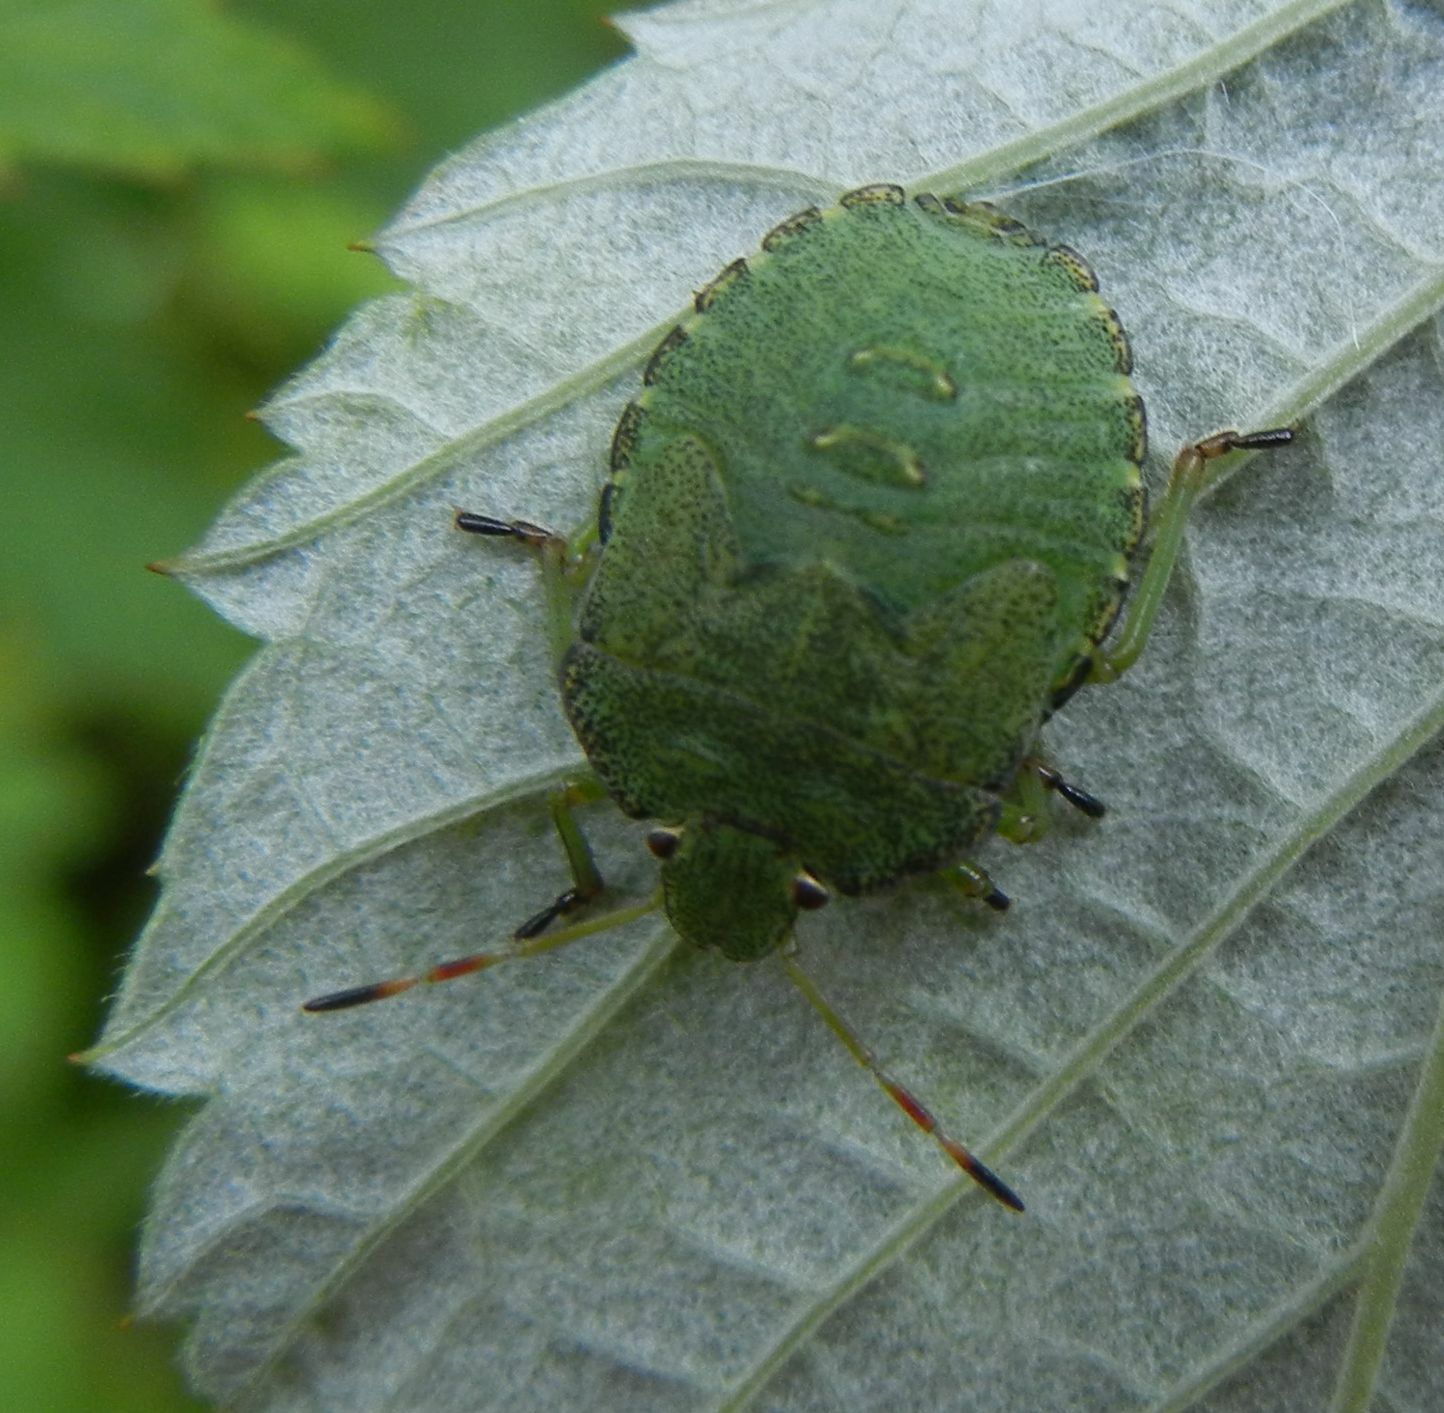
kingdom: Animalia
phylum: Arthropoda
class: Insecta
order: Hemiptera
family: Pentatomidae
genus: Palomena
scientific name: Palomena prasina
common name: Green shieldbug
